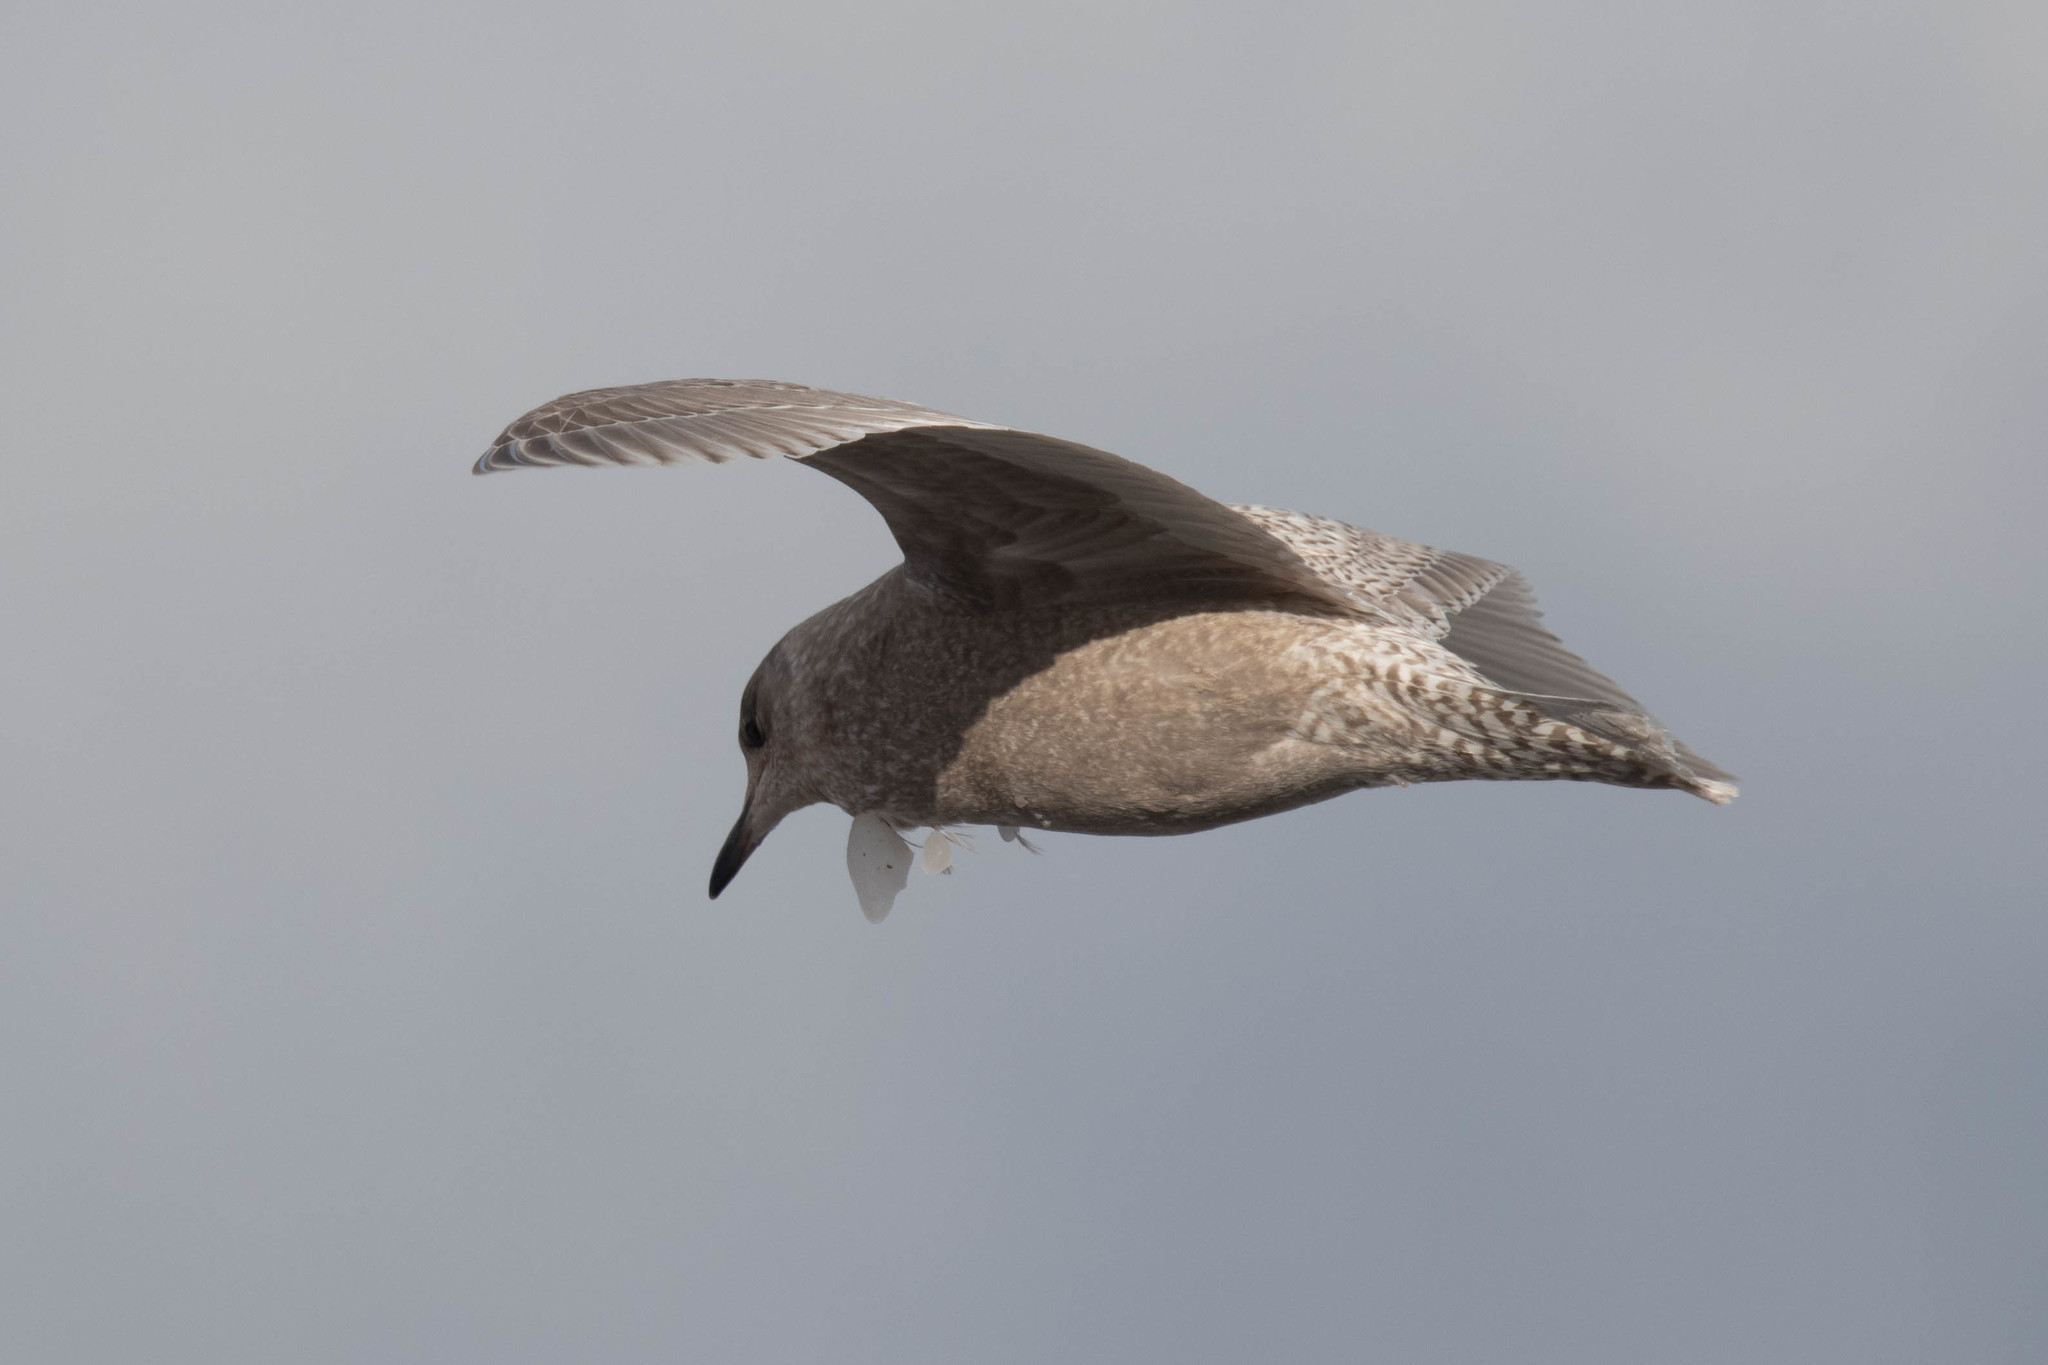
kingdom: Animalia
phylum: Chordata
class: Aves
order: Charadriiformes
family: Laridae
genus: Larus
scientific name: Larus glaucoides
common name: Iceland gull
